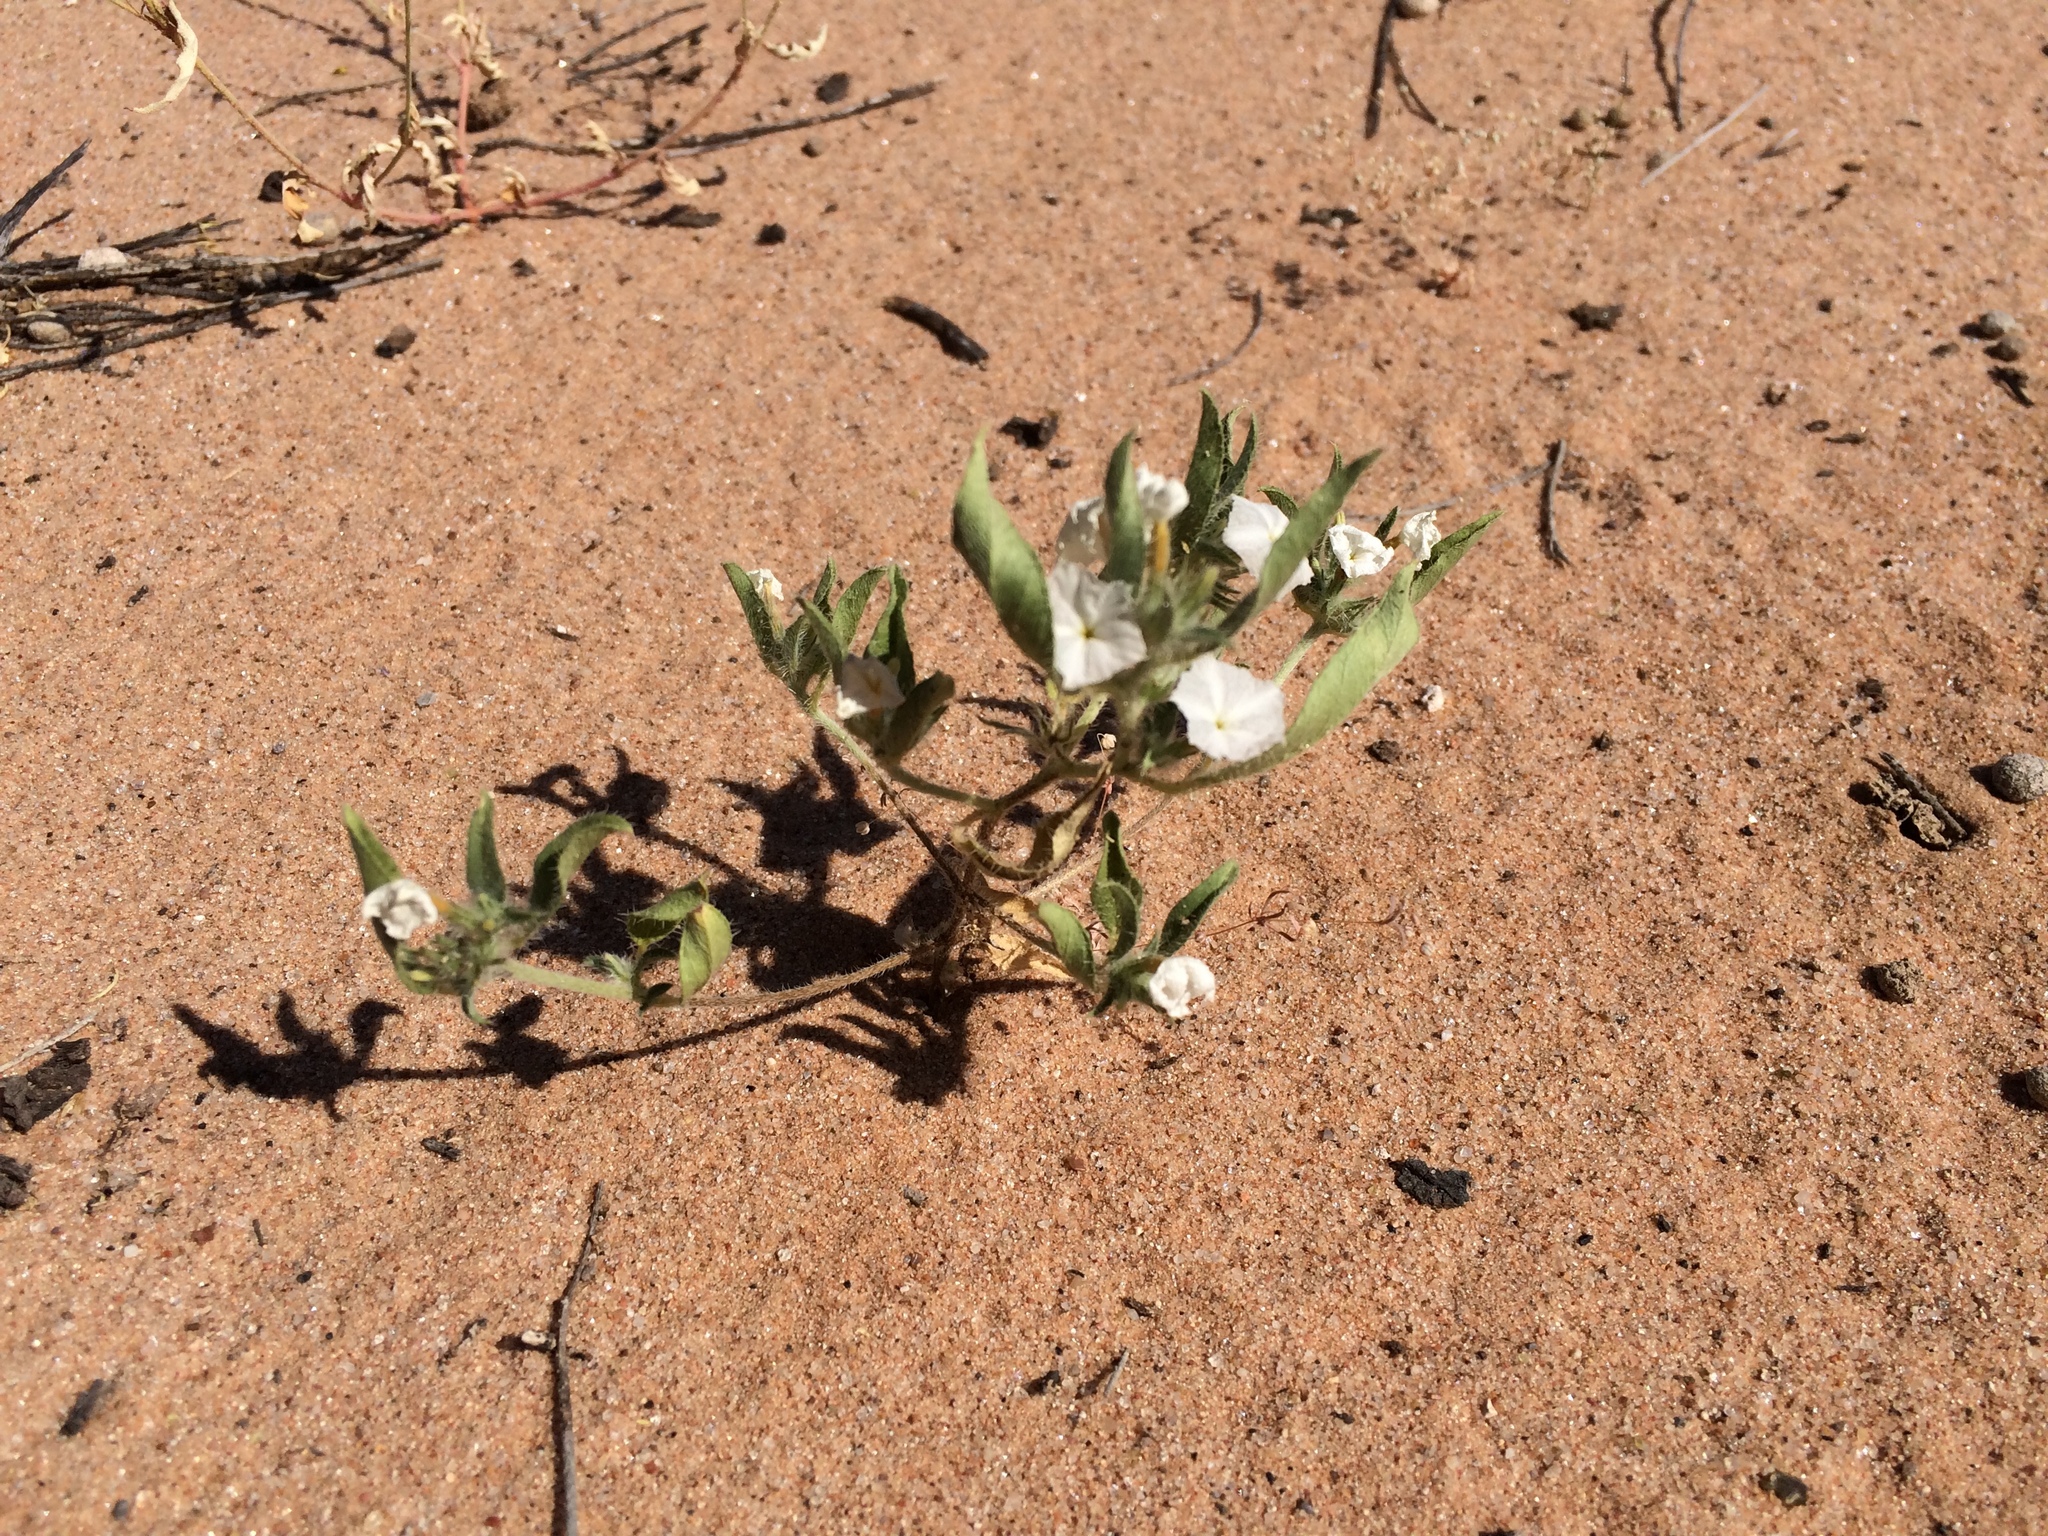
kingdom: Plantae
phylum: Tracheophyta
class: Magnoliopsida
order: Boraginales
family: Heliotropiaceae
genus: Euploca
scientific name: Euploca convolvulacea
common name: Bindweed heliotrope
